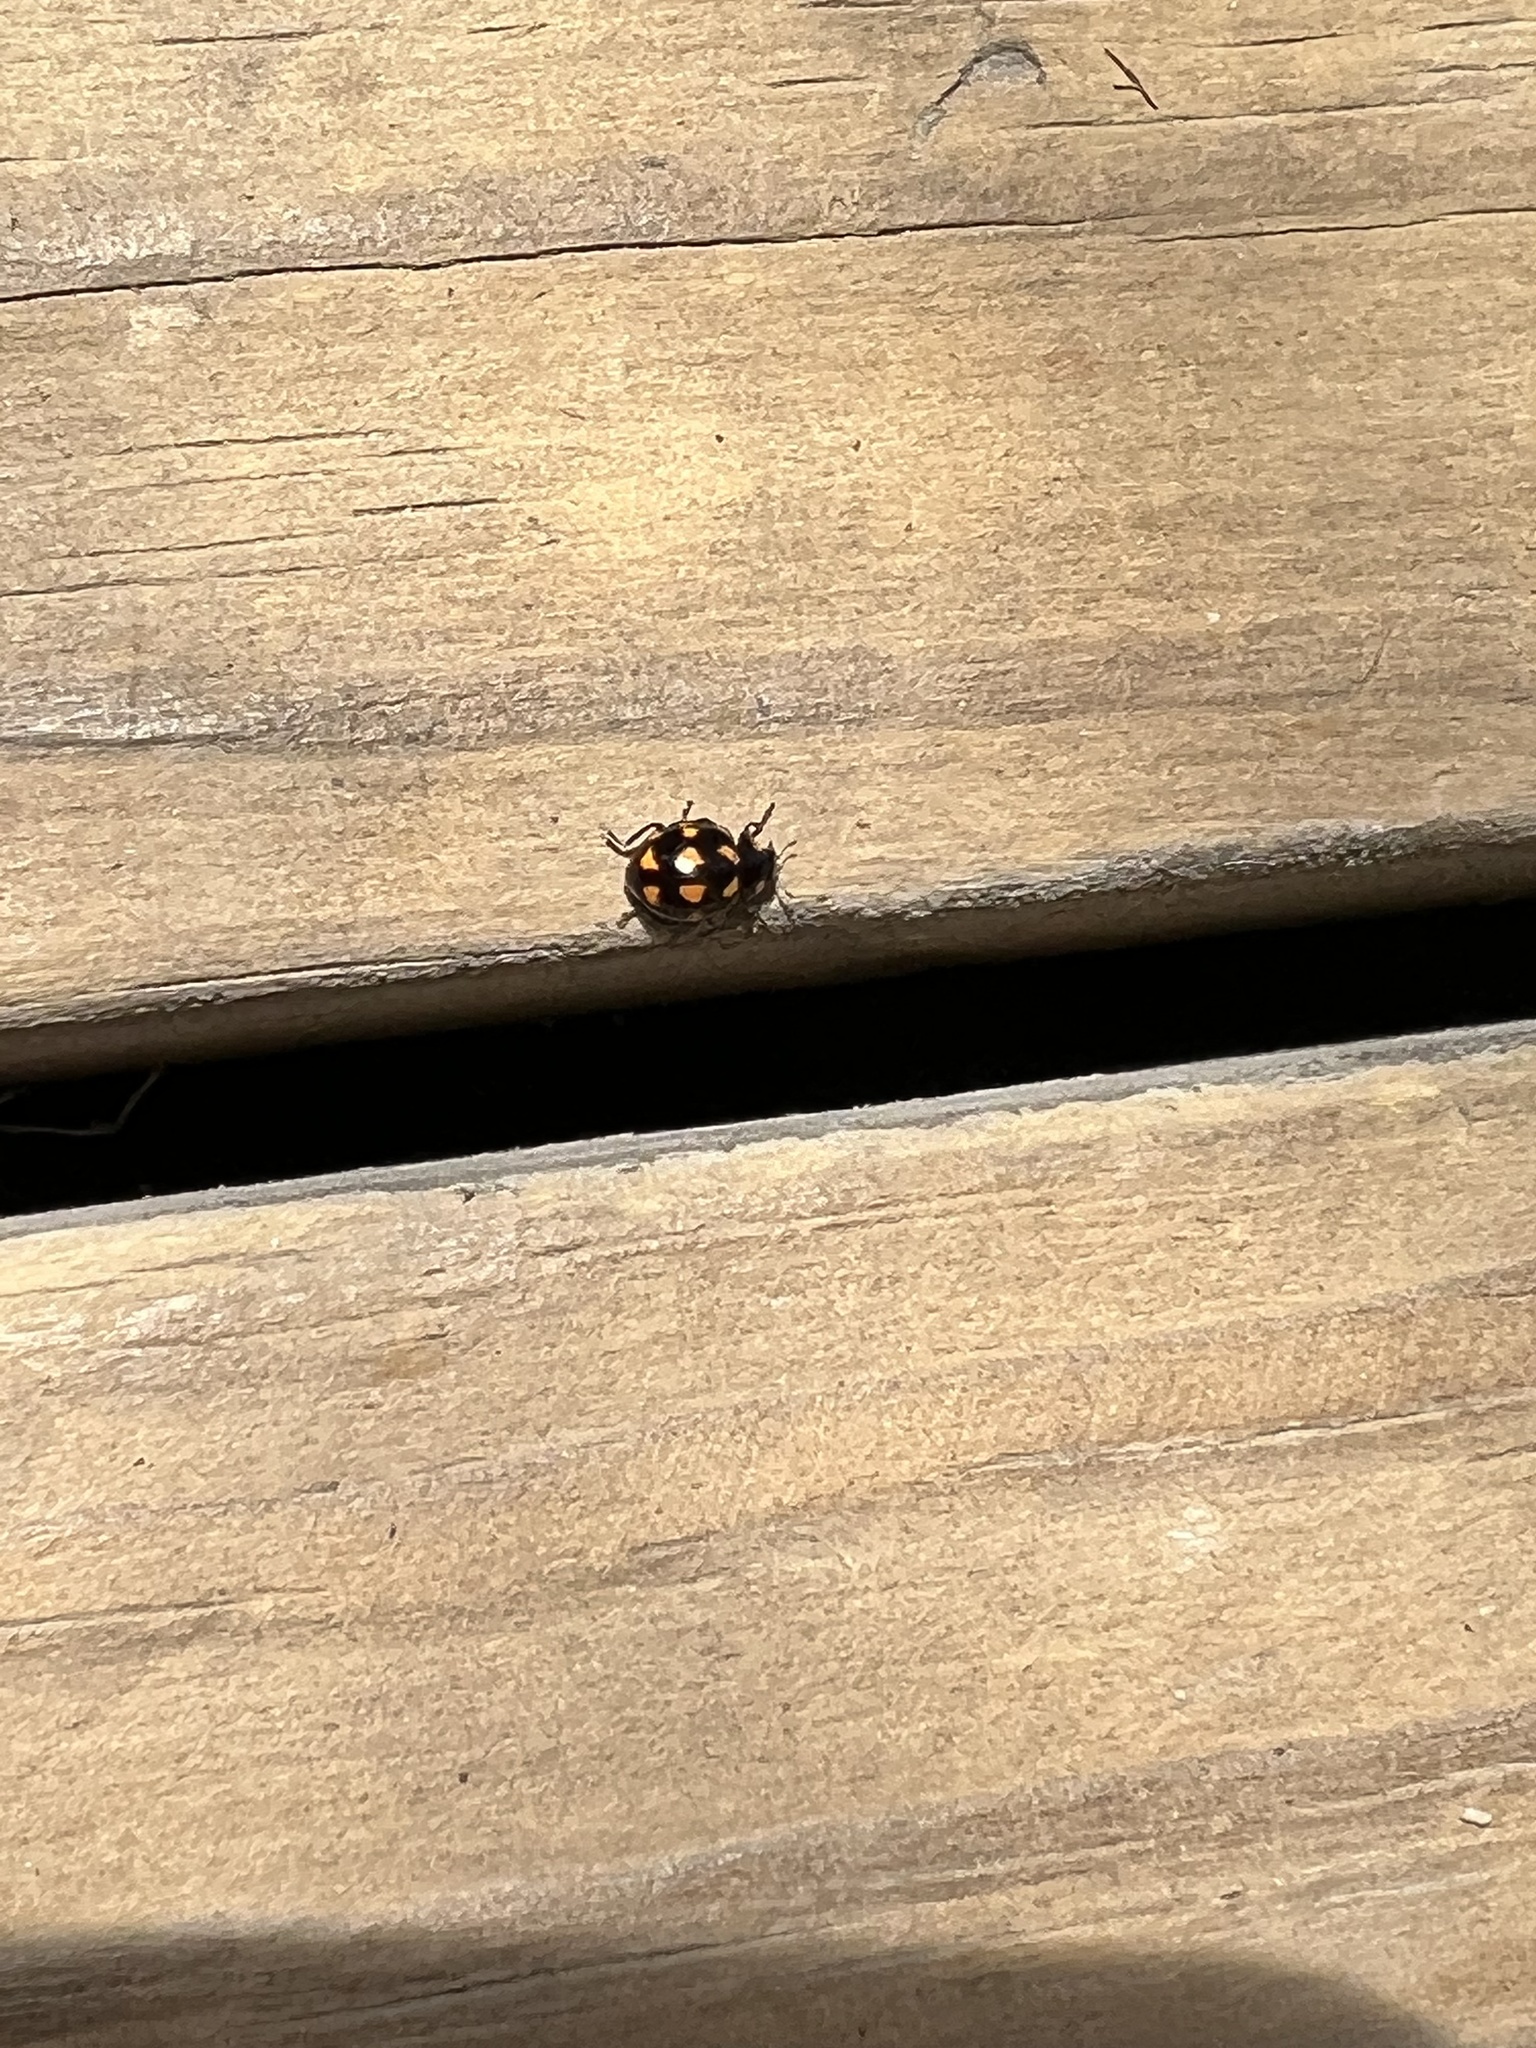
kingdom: Animalia
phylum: Arthropoda
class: Insecta
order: Coleoptera
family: Coccinellidae
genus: Coccinella
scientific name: Coccinella leonina
